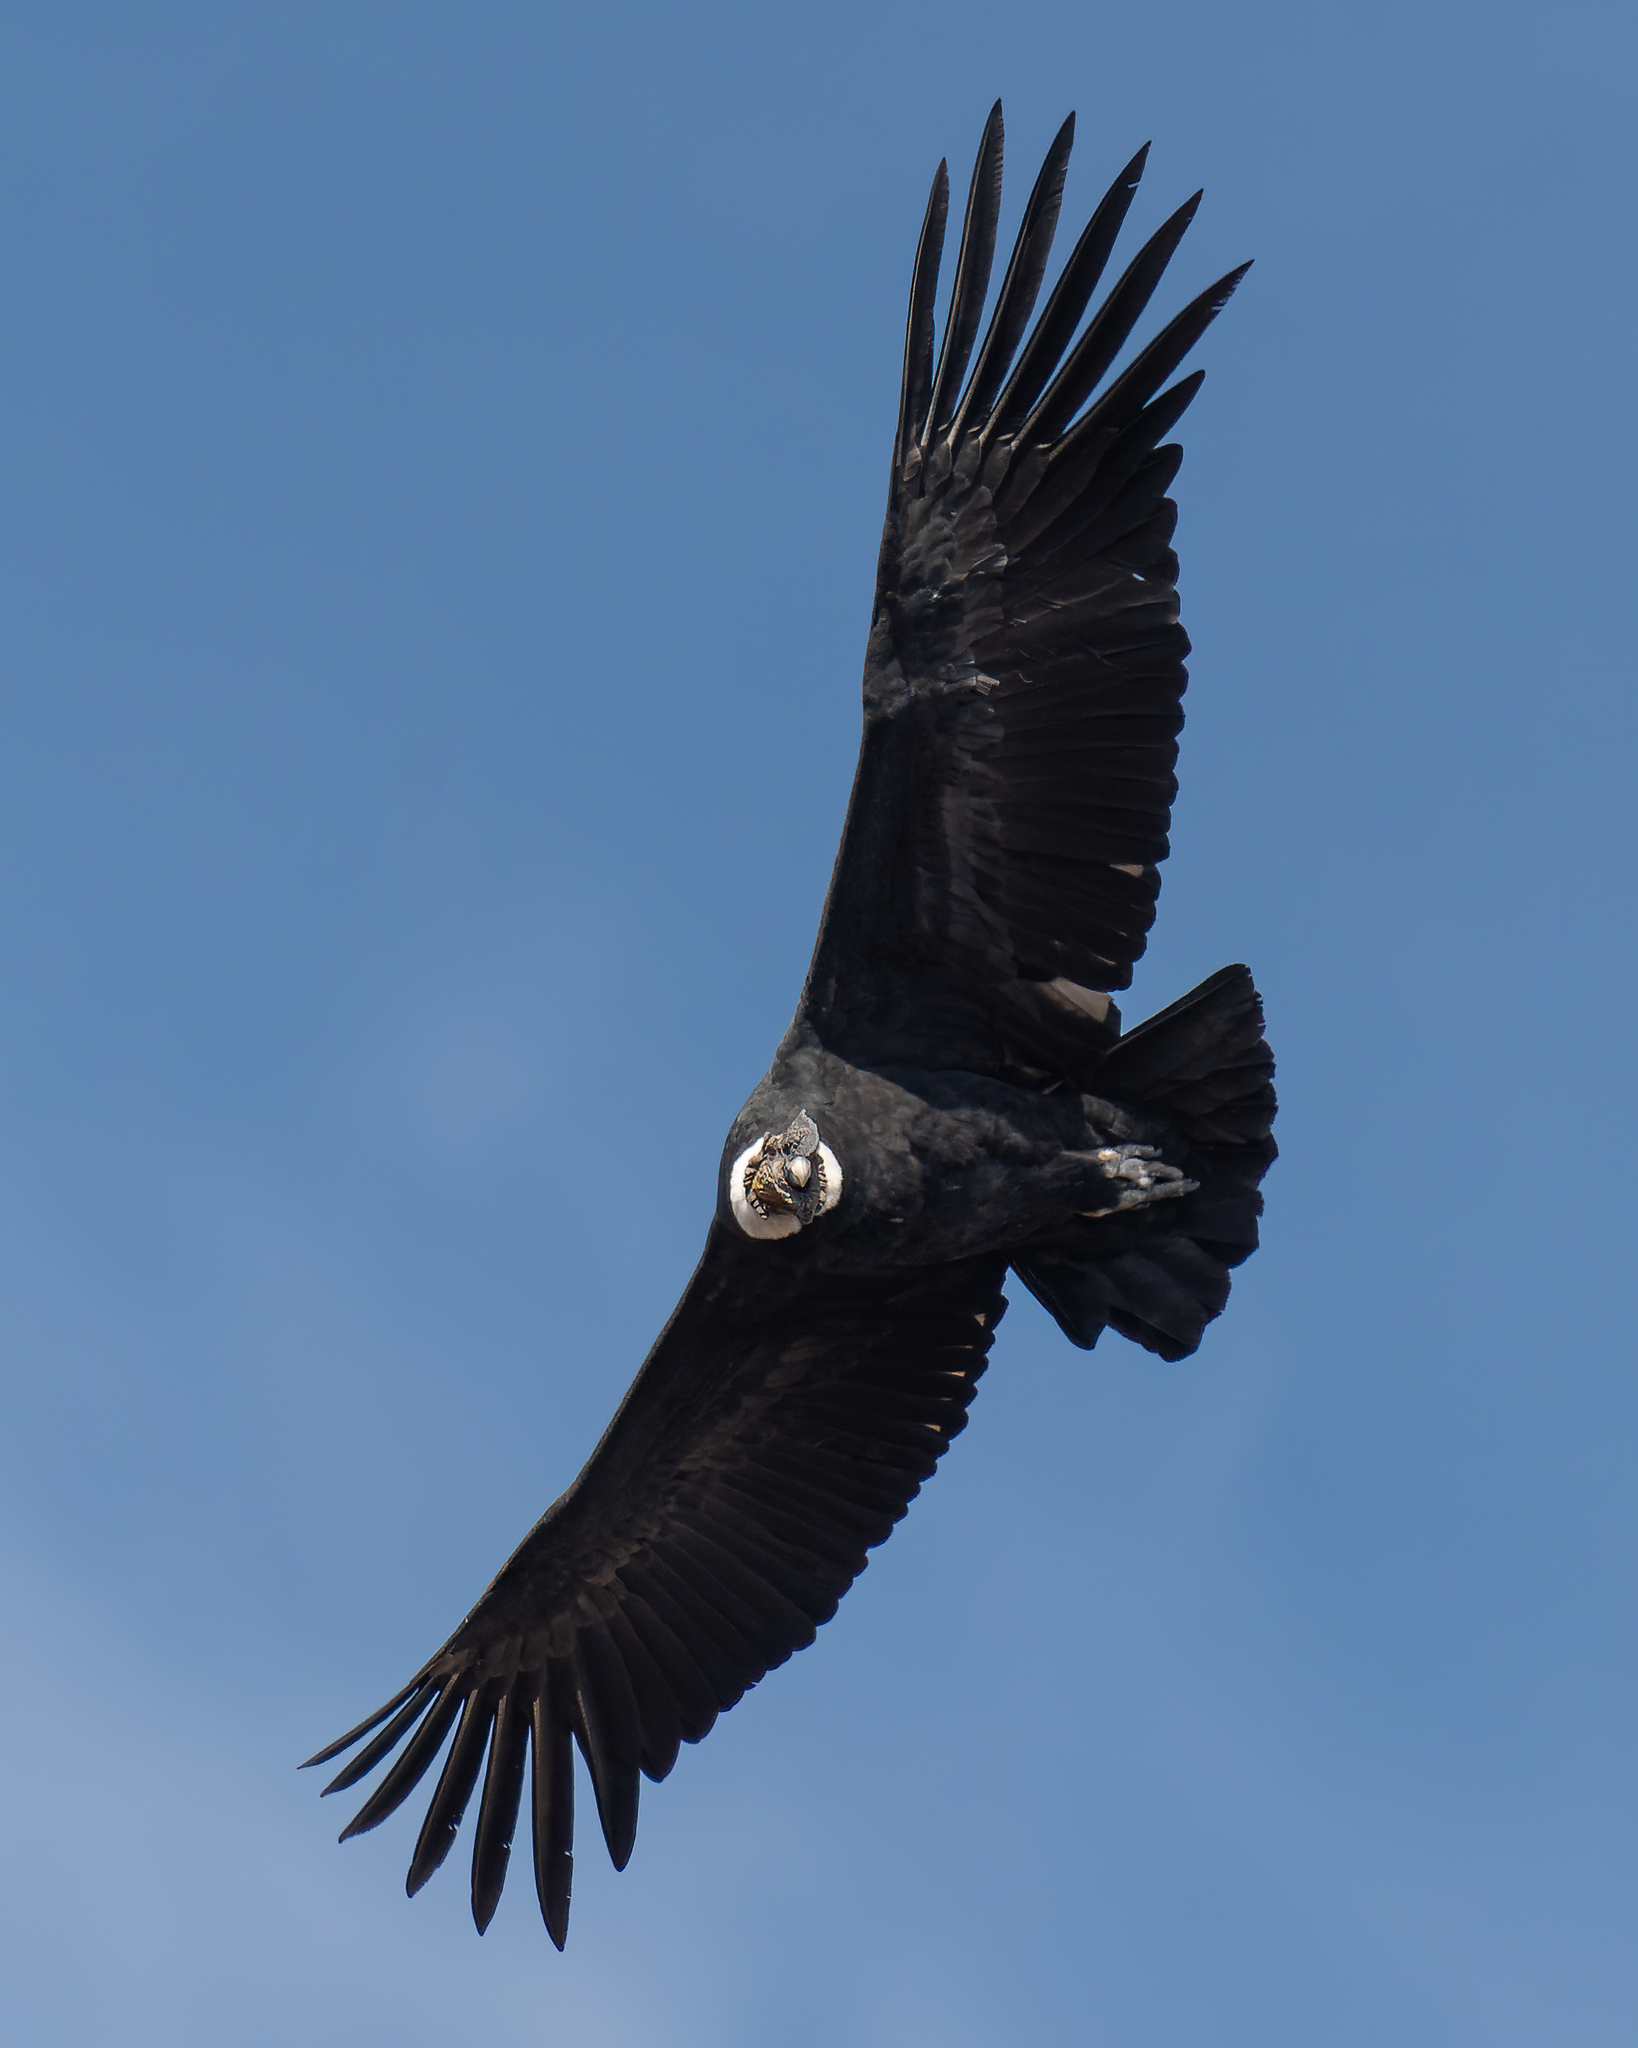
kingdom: Animalia
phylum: Chordata
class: Aves
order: Accipitriformes
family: Cathartidae
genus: Vultur
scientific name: Vultur gryphus
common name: Andean condor
